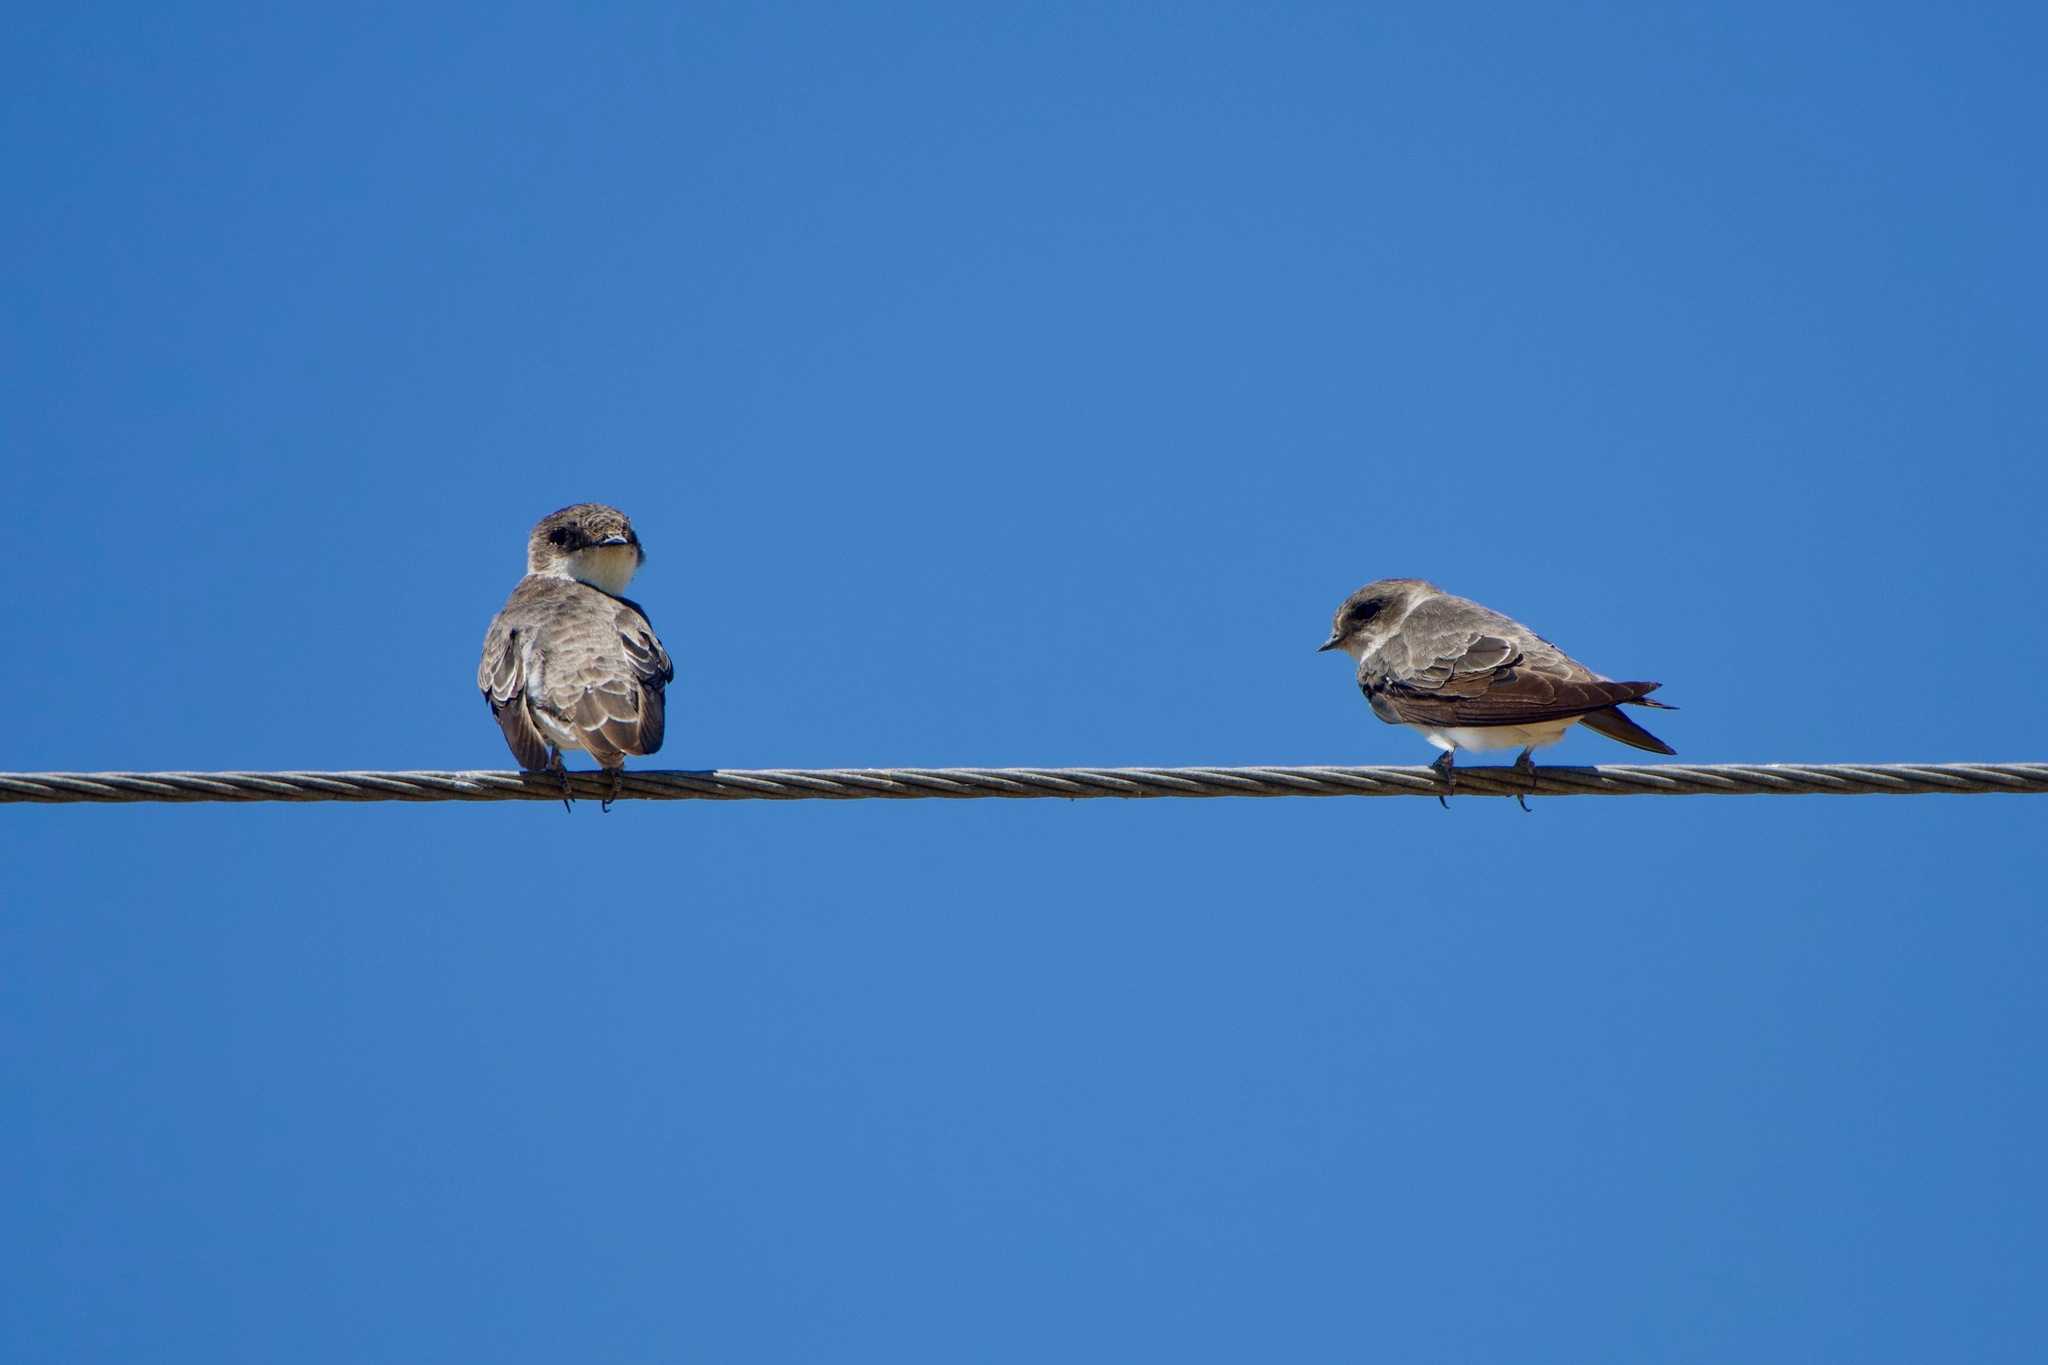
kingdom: Animalia
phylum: Chordata
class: Aves
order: Passeriformes
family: Hirundinidae
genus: Riparia
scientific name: Riparia riparia
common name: Sand martin
